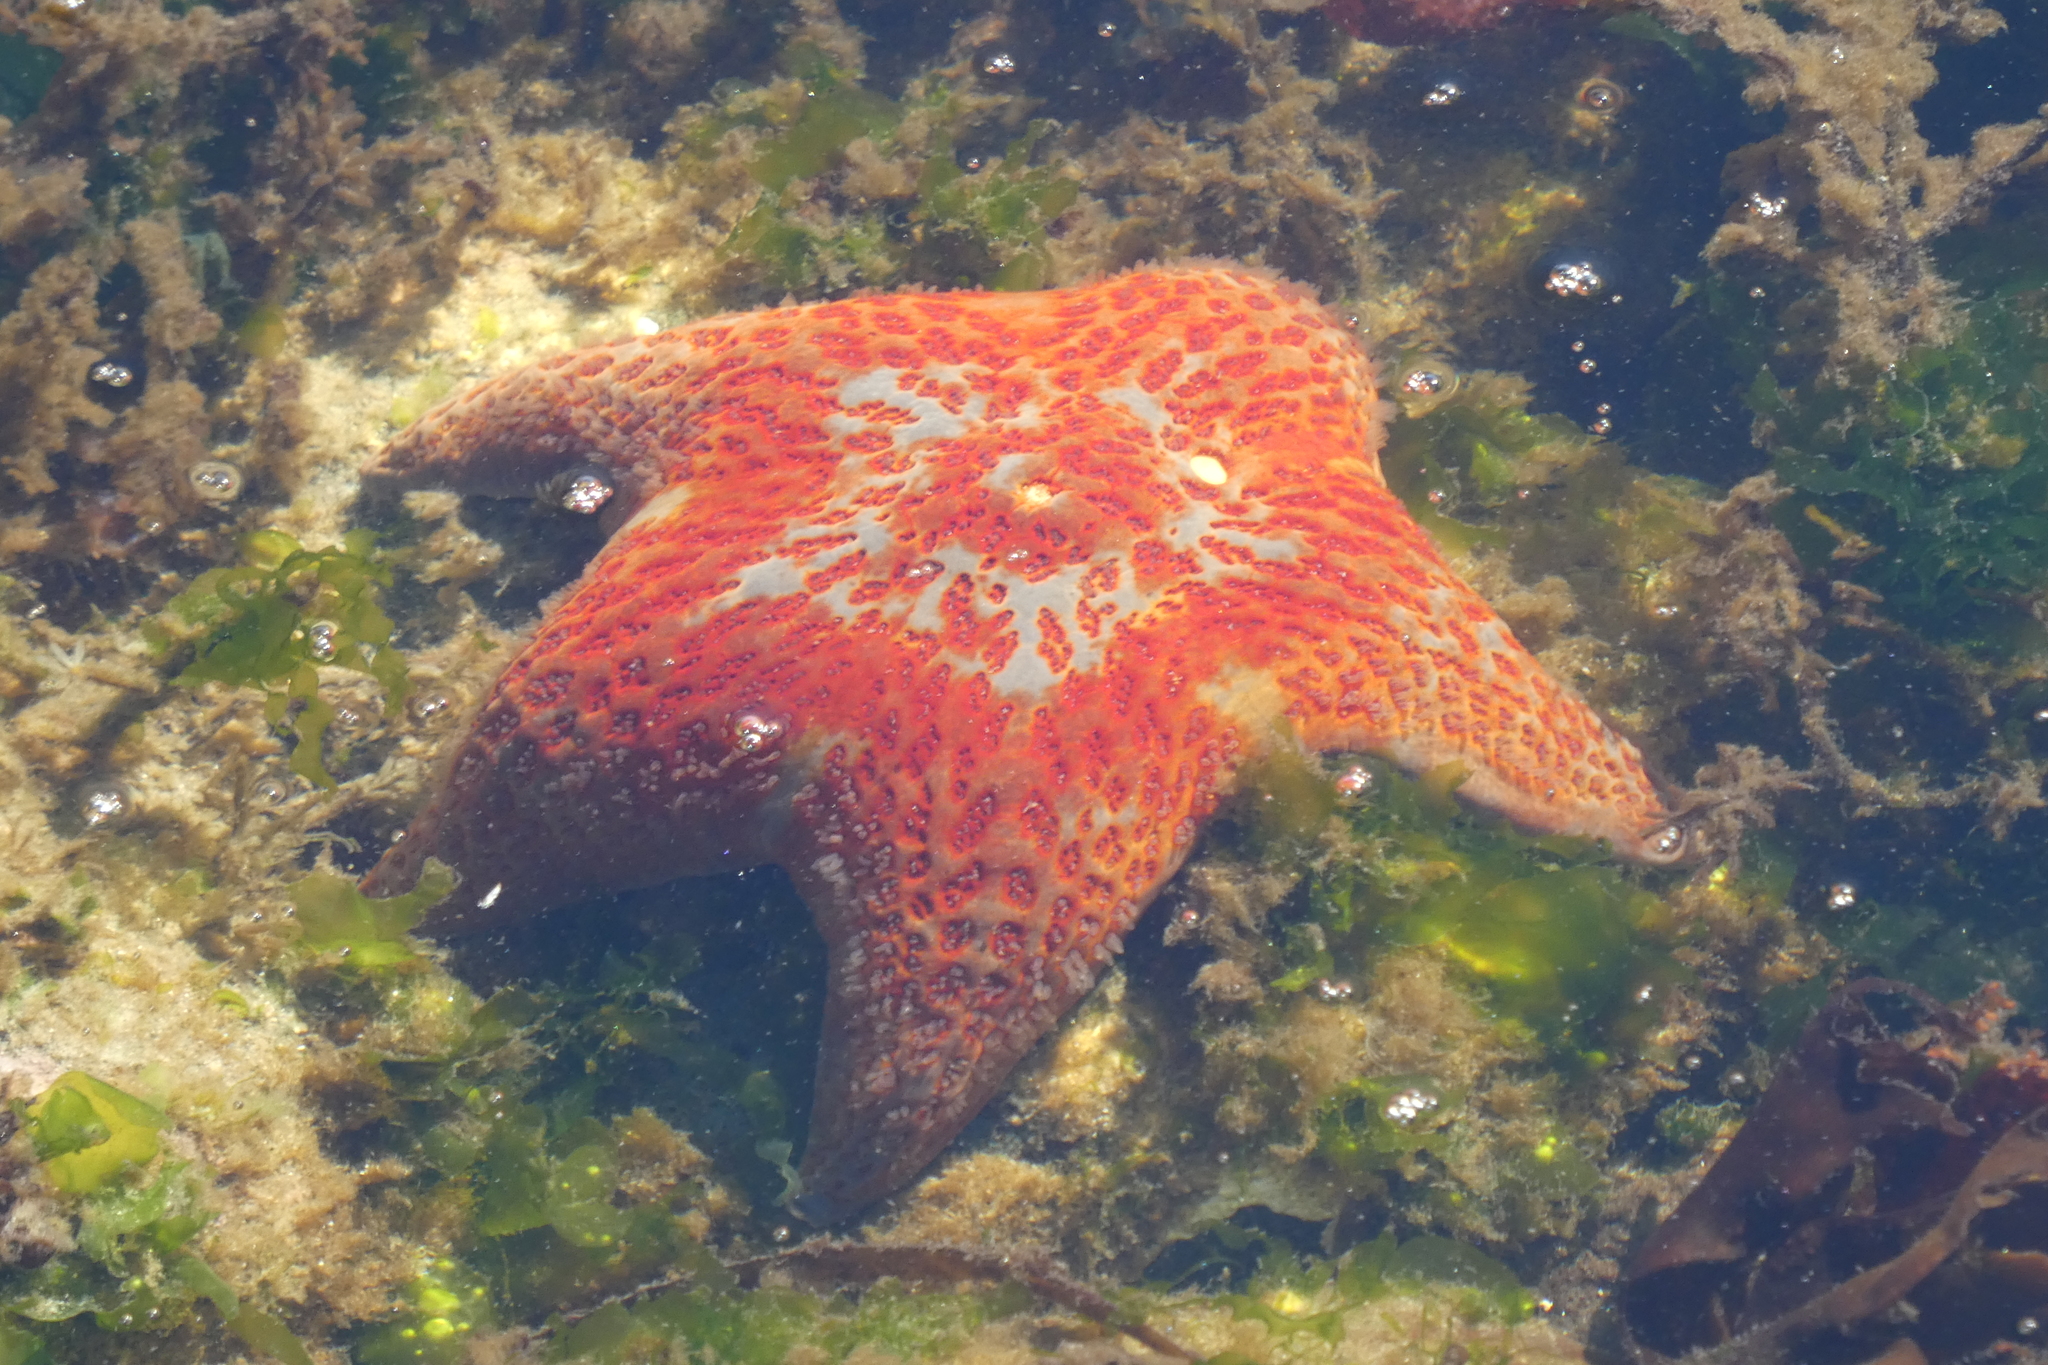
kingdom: Animalia
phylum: Echinodermata
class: Asteroidea
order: Valvatida
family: Asteropseidae
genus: Dermasterias
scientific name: Dermasterias imbricata
